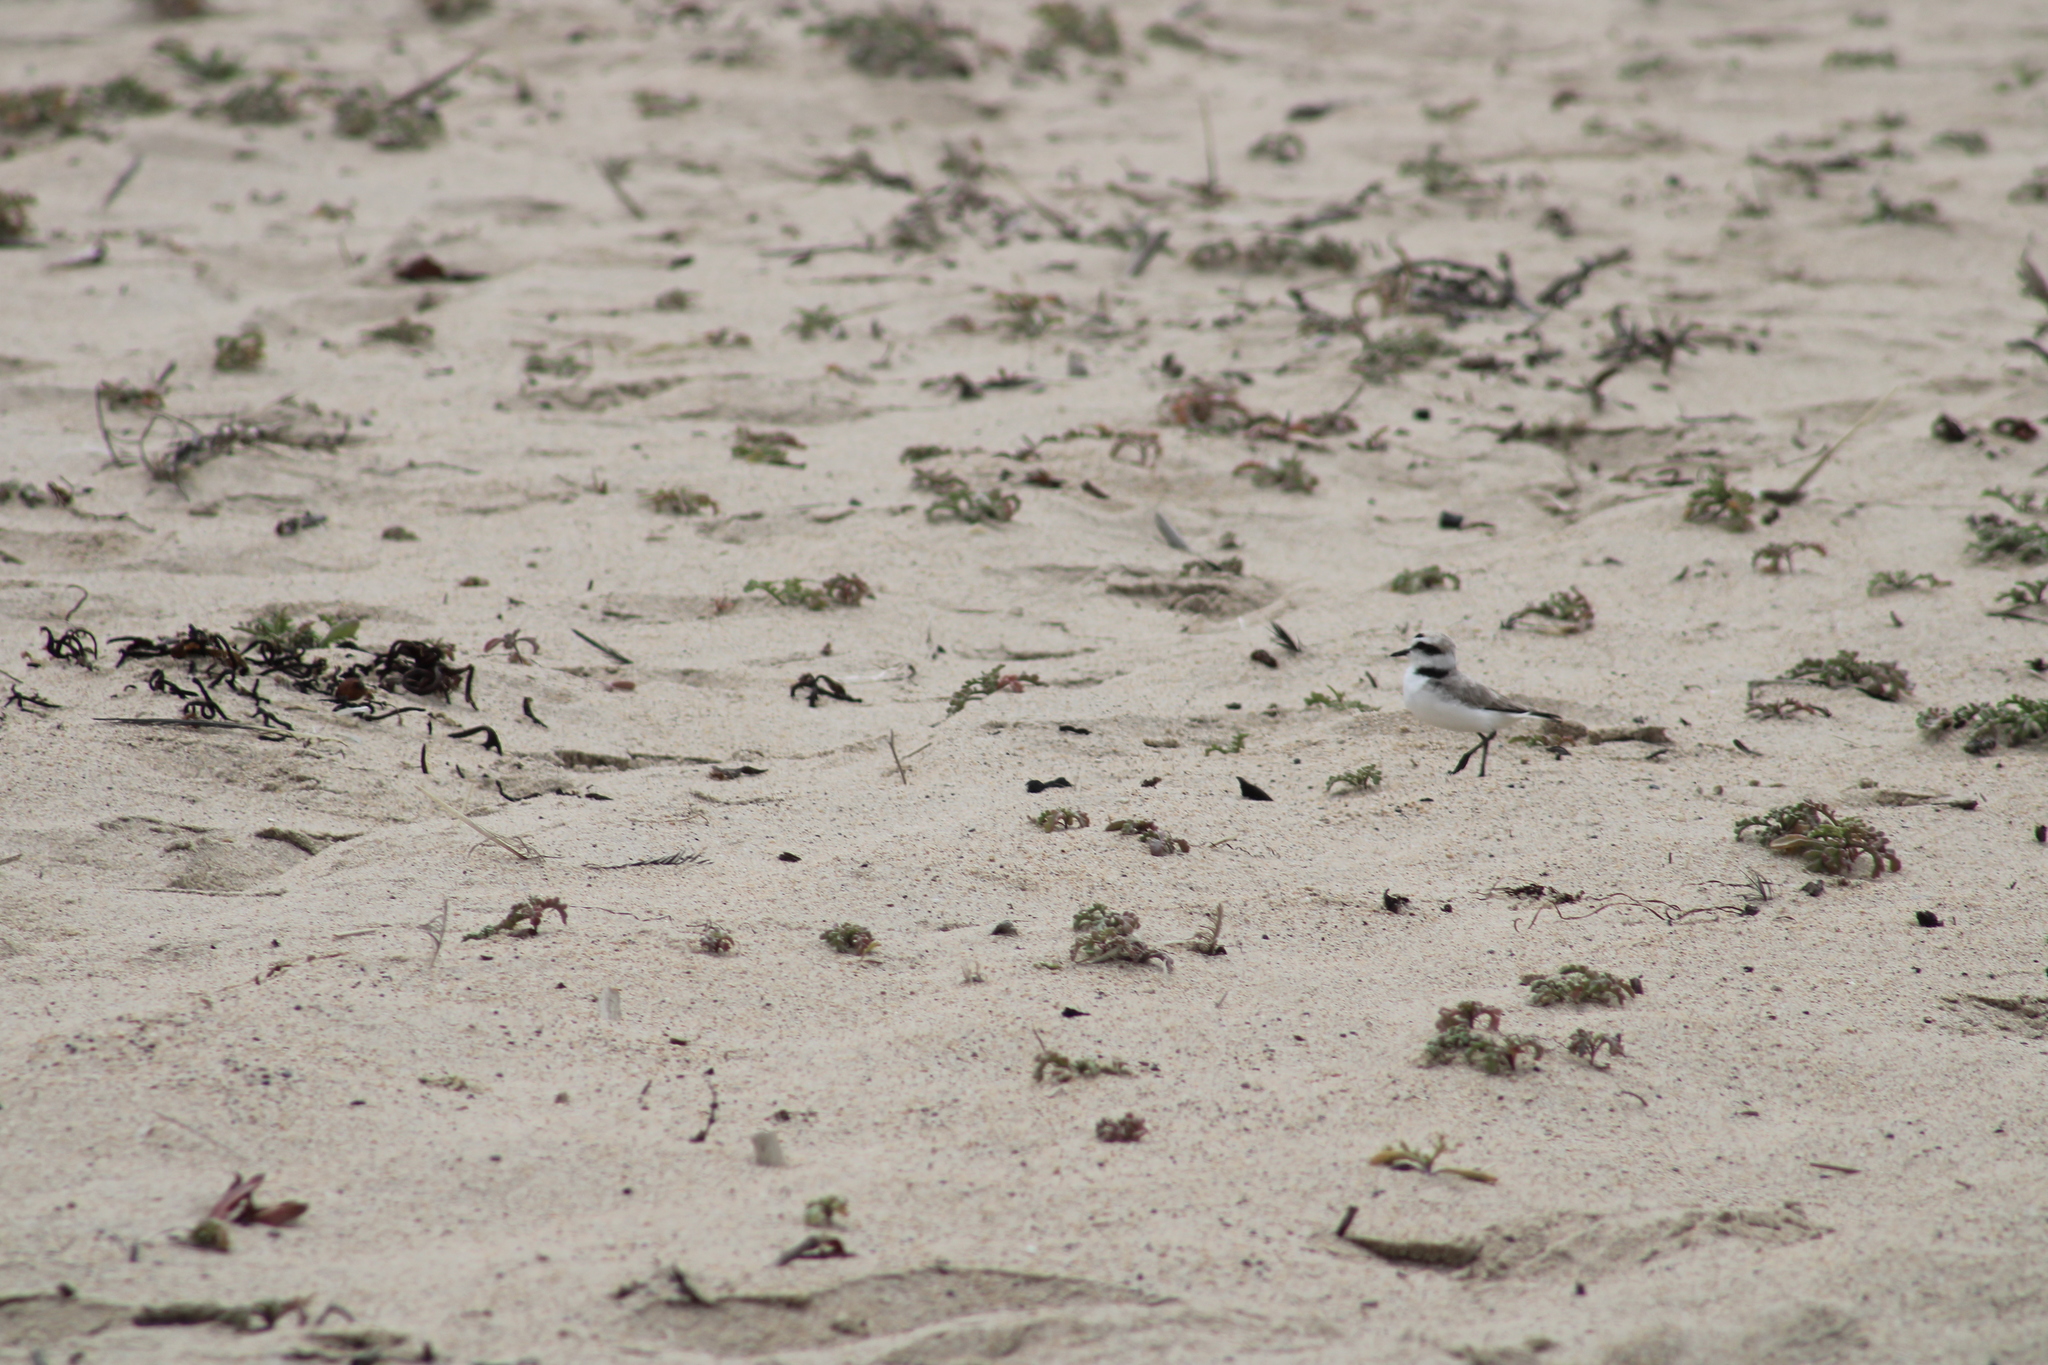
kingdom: Animalia
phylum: Chordata
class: Aves
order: Charadriiformes
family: Charadriidae
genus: Anarhynchus
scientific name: Anarhynchus
